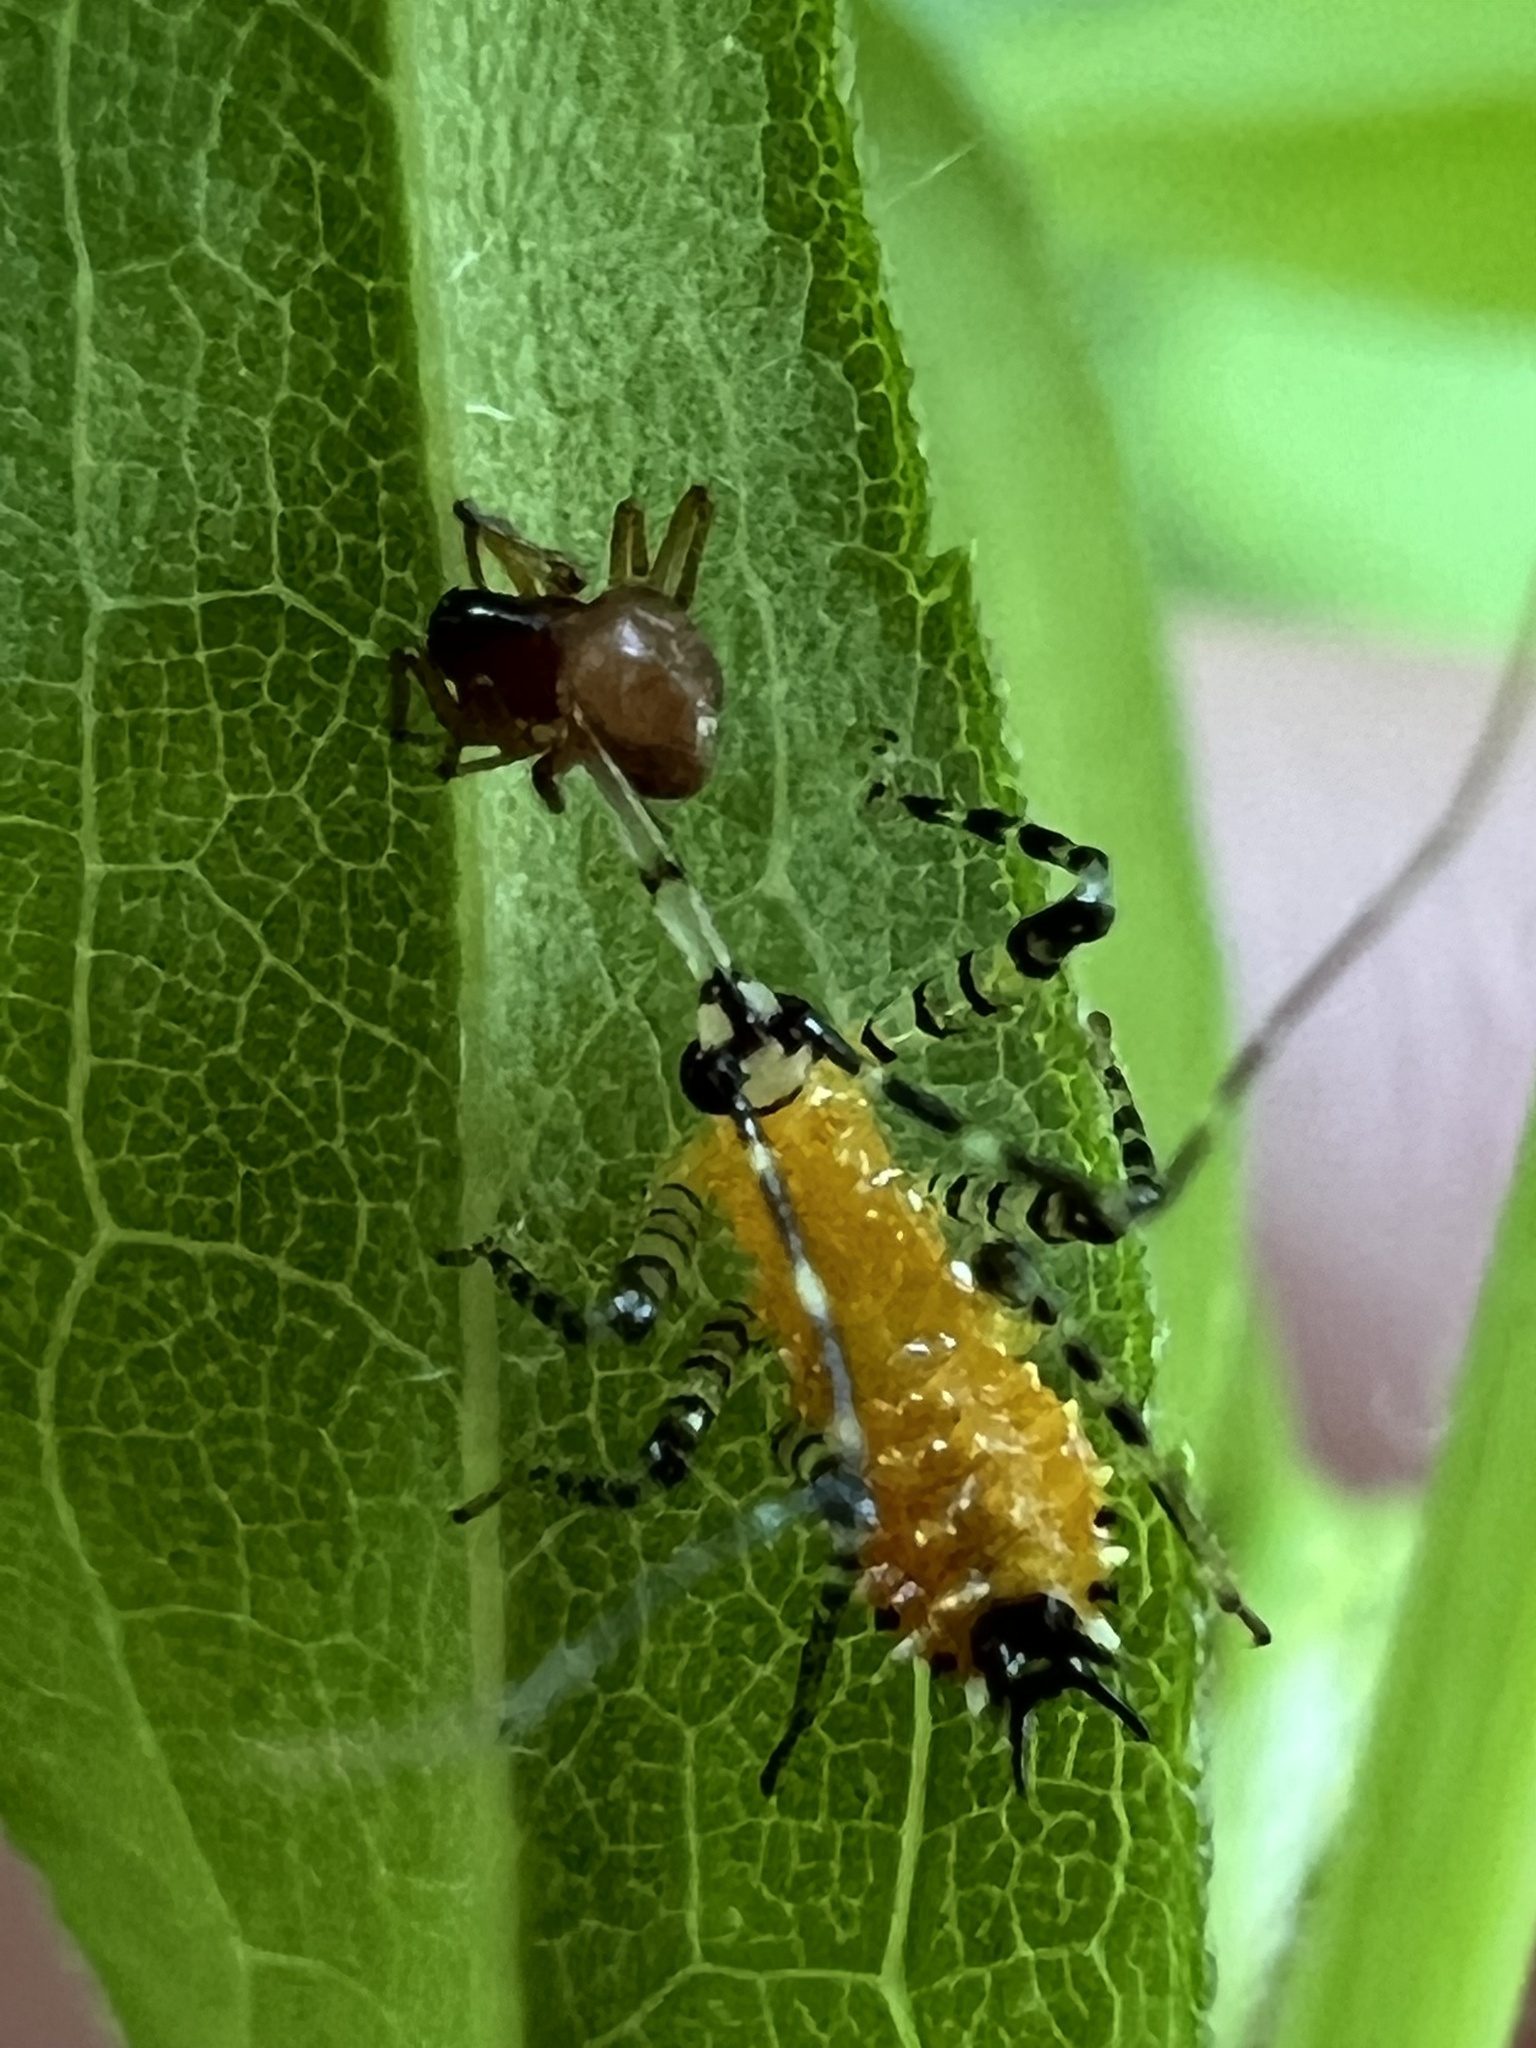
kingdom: Animalia
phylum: Arthropoda
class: Insecta
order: Hemiptera
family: Reduviidae
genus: Pselliopus
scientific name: Pselliopus barberi
